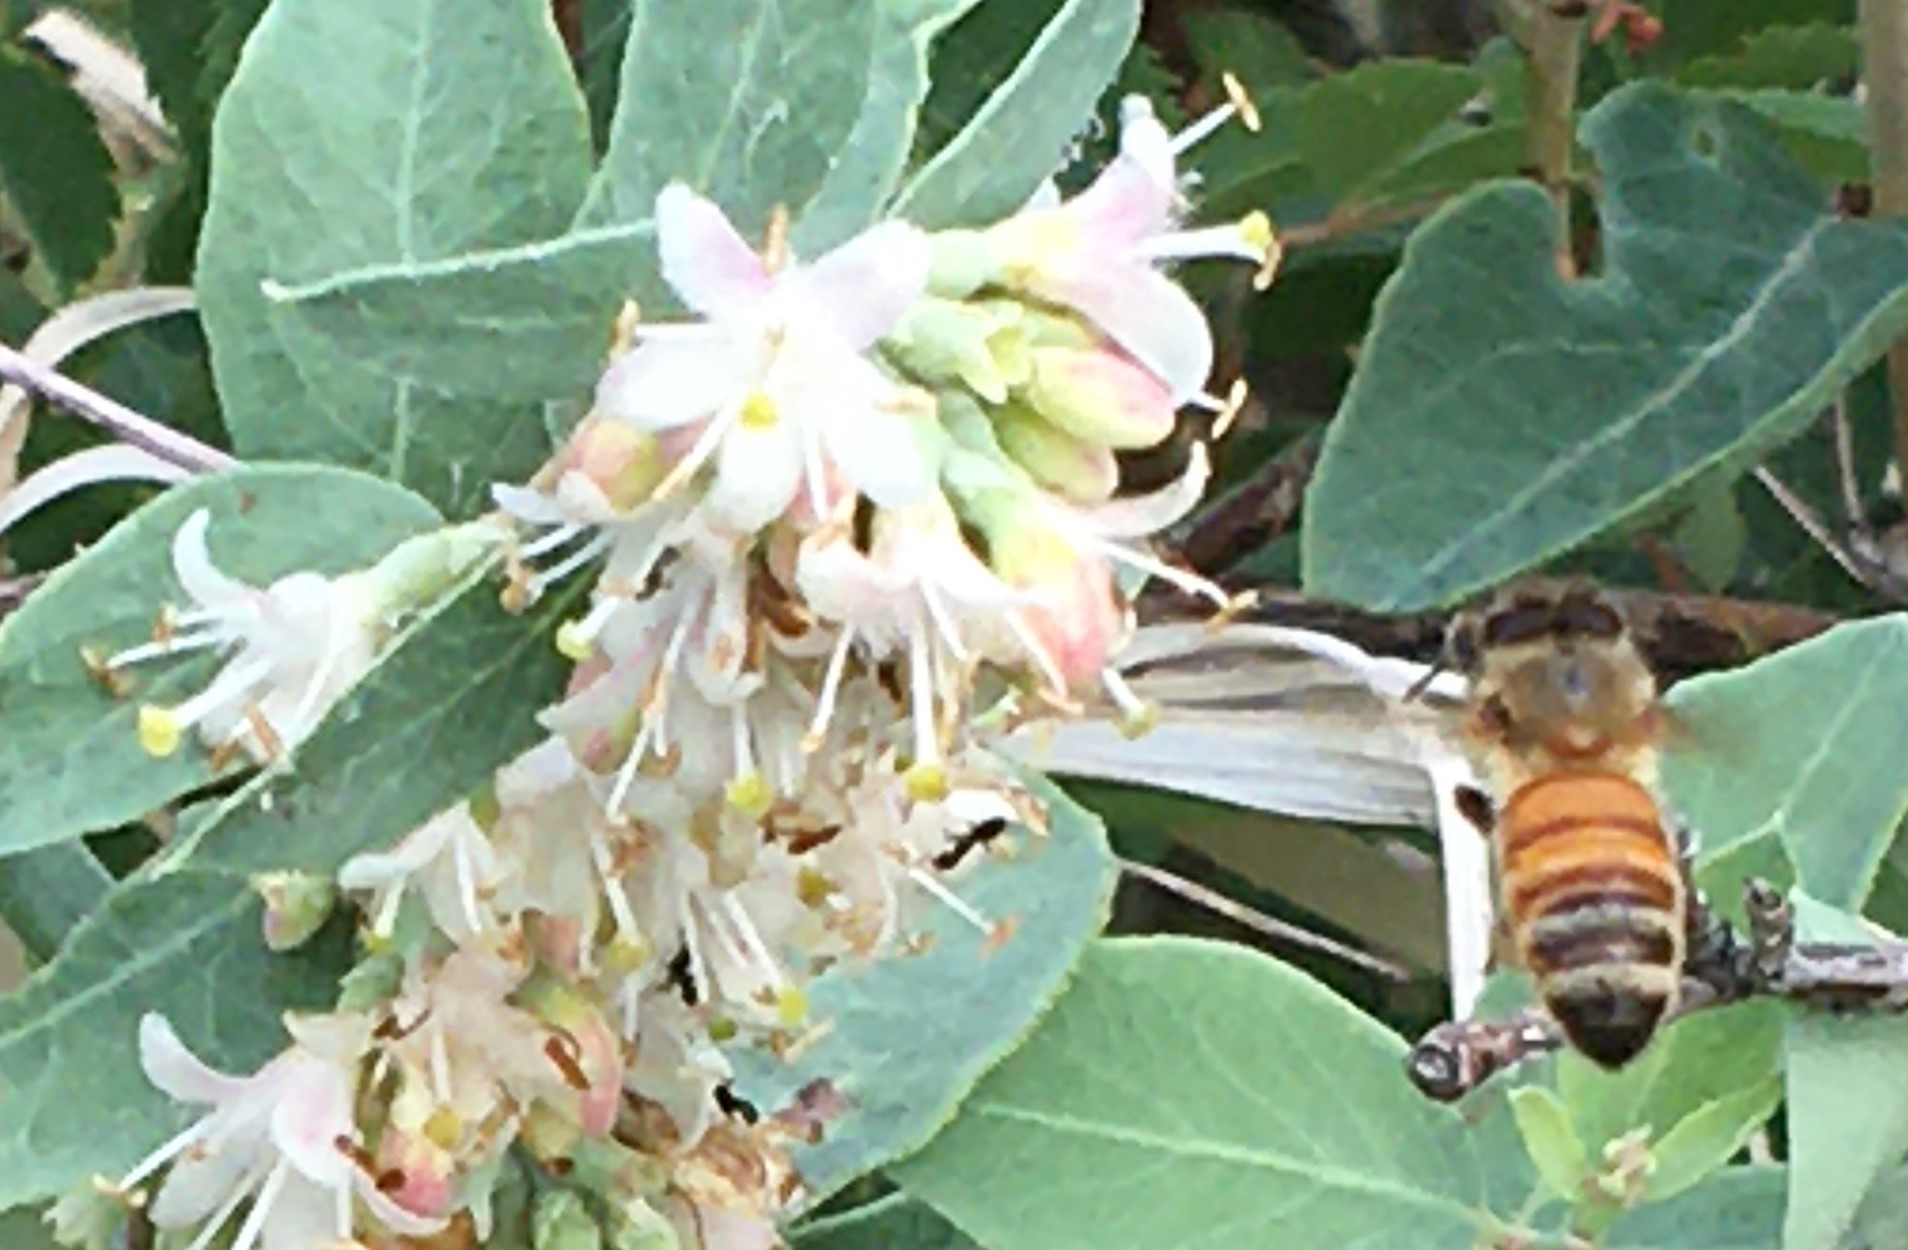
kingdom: Animalia
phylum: Arthropoda
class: Insecta
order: Hymenoptera
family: Apidae
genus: Apis
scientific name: Apis mellifera
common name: Honey bee
